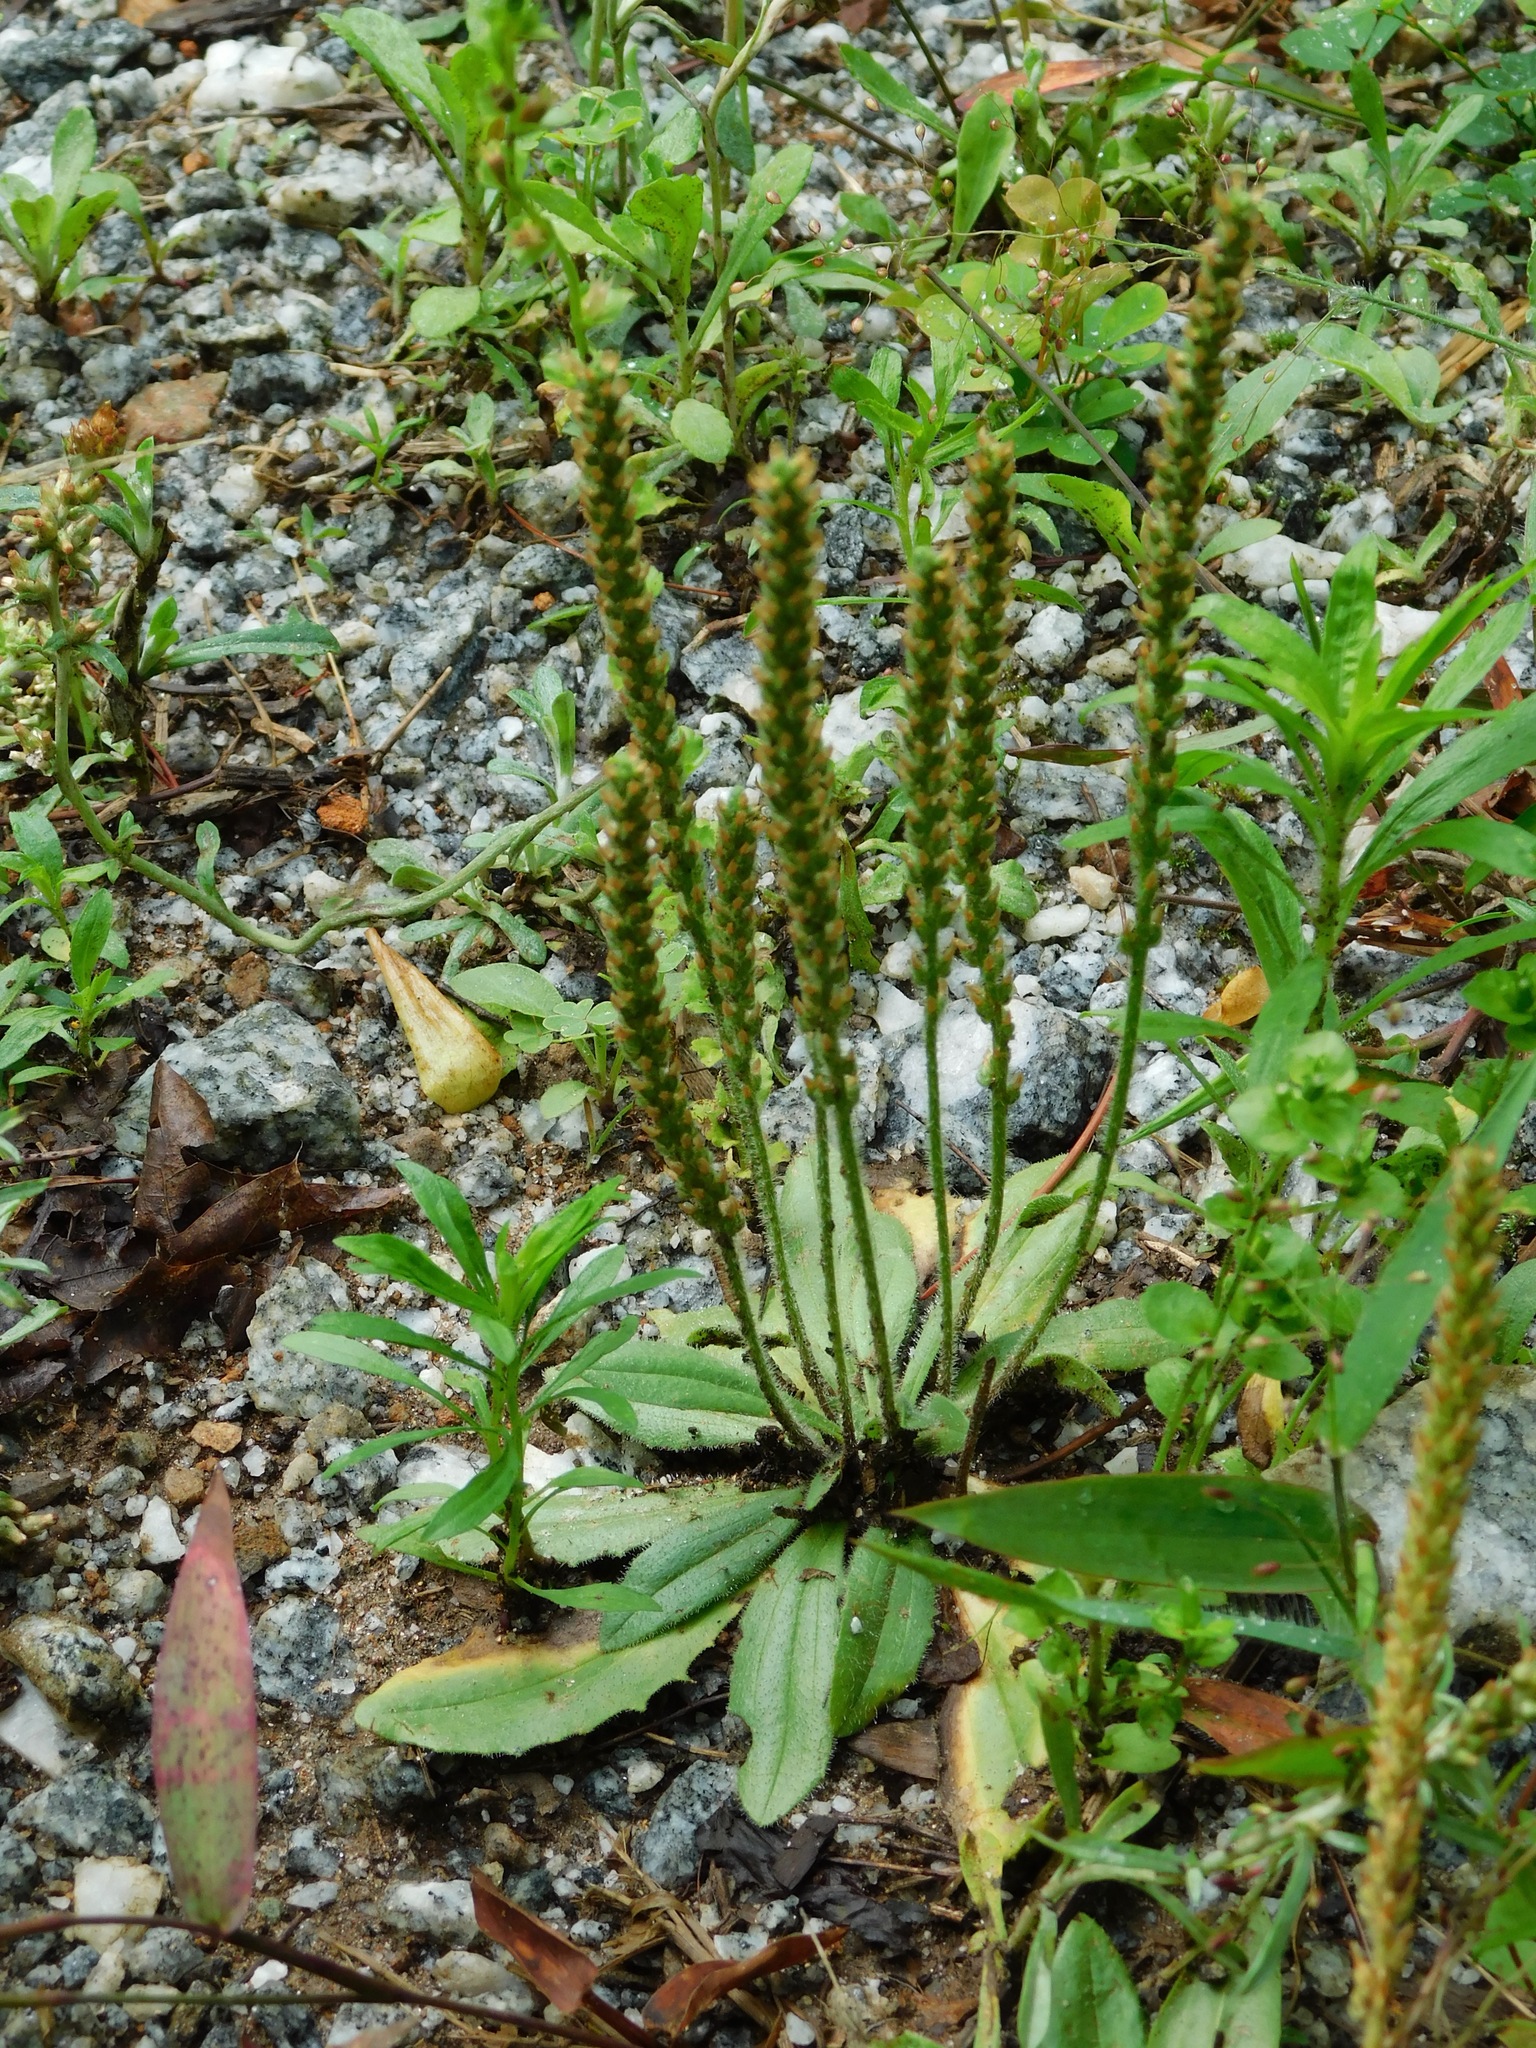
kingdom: Plantae
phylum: Tracheophyta
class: Magnoliopsida
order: Lamiales
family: Plantaginaceae
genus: Plantago
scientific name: Plantago virginica
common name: Hoary plantain
